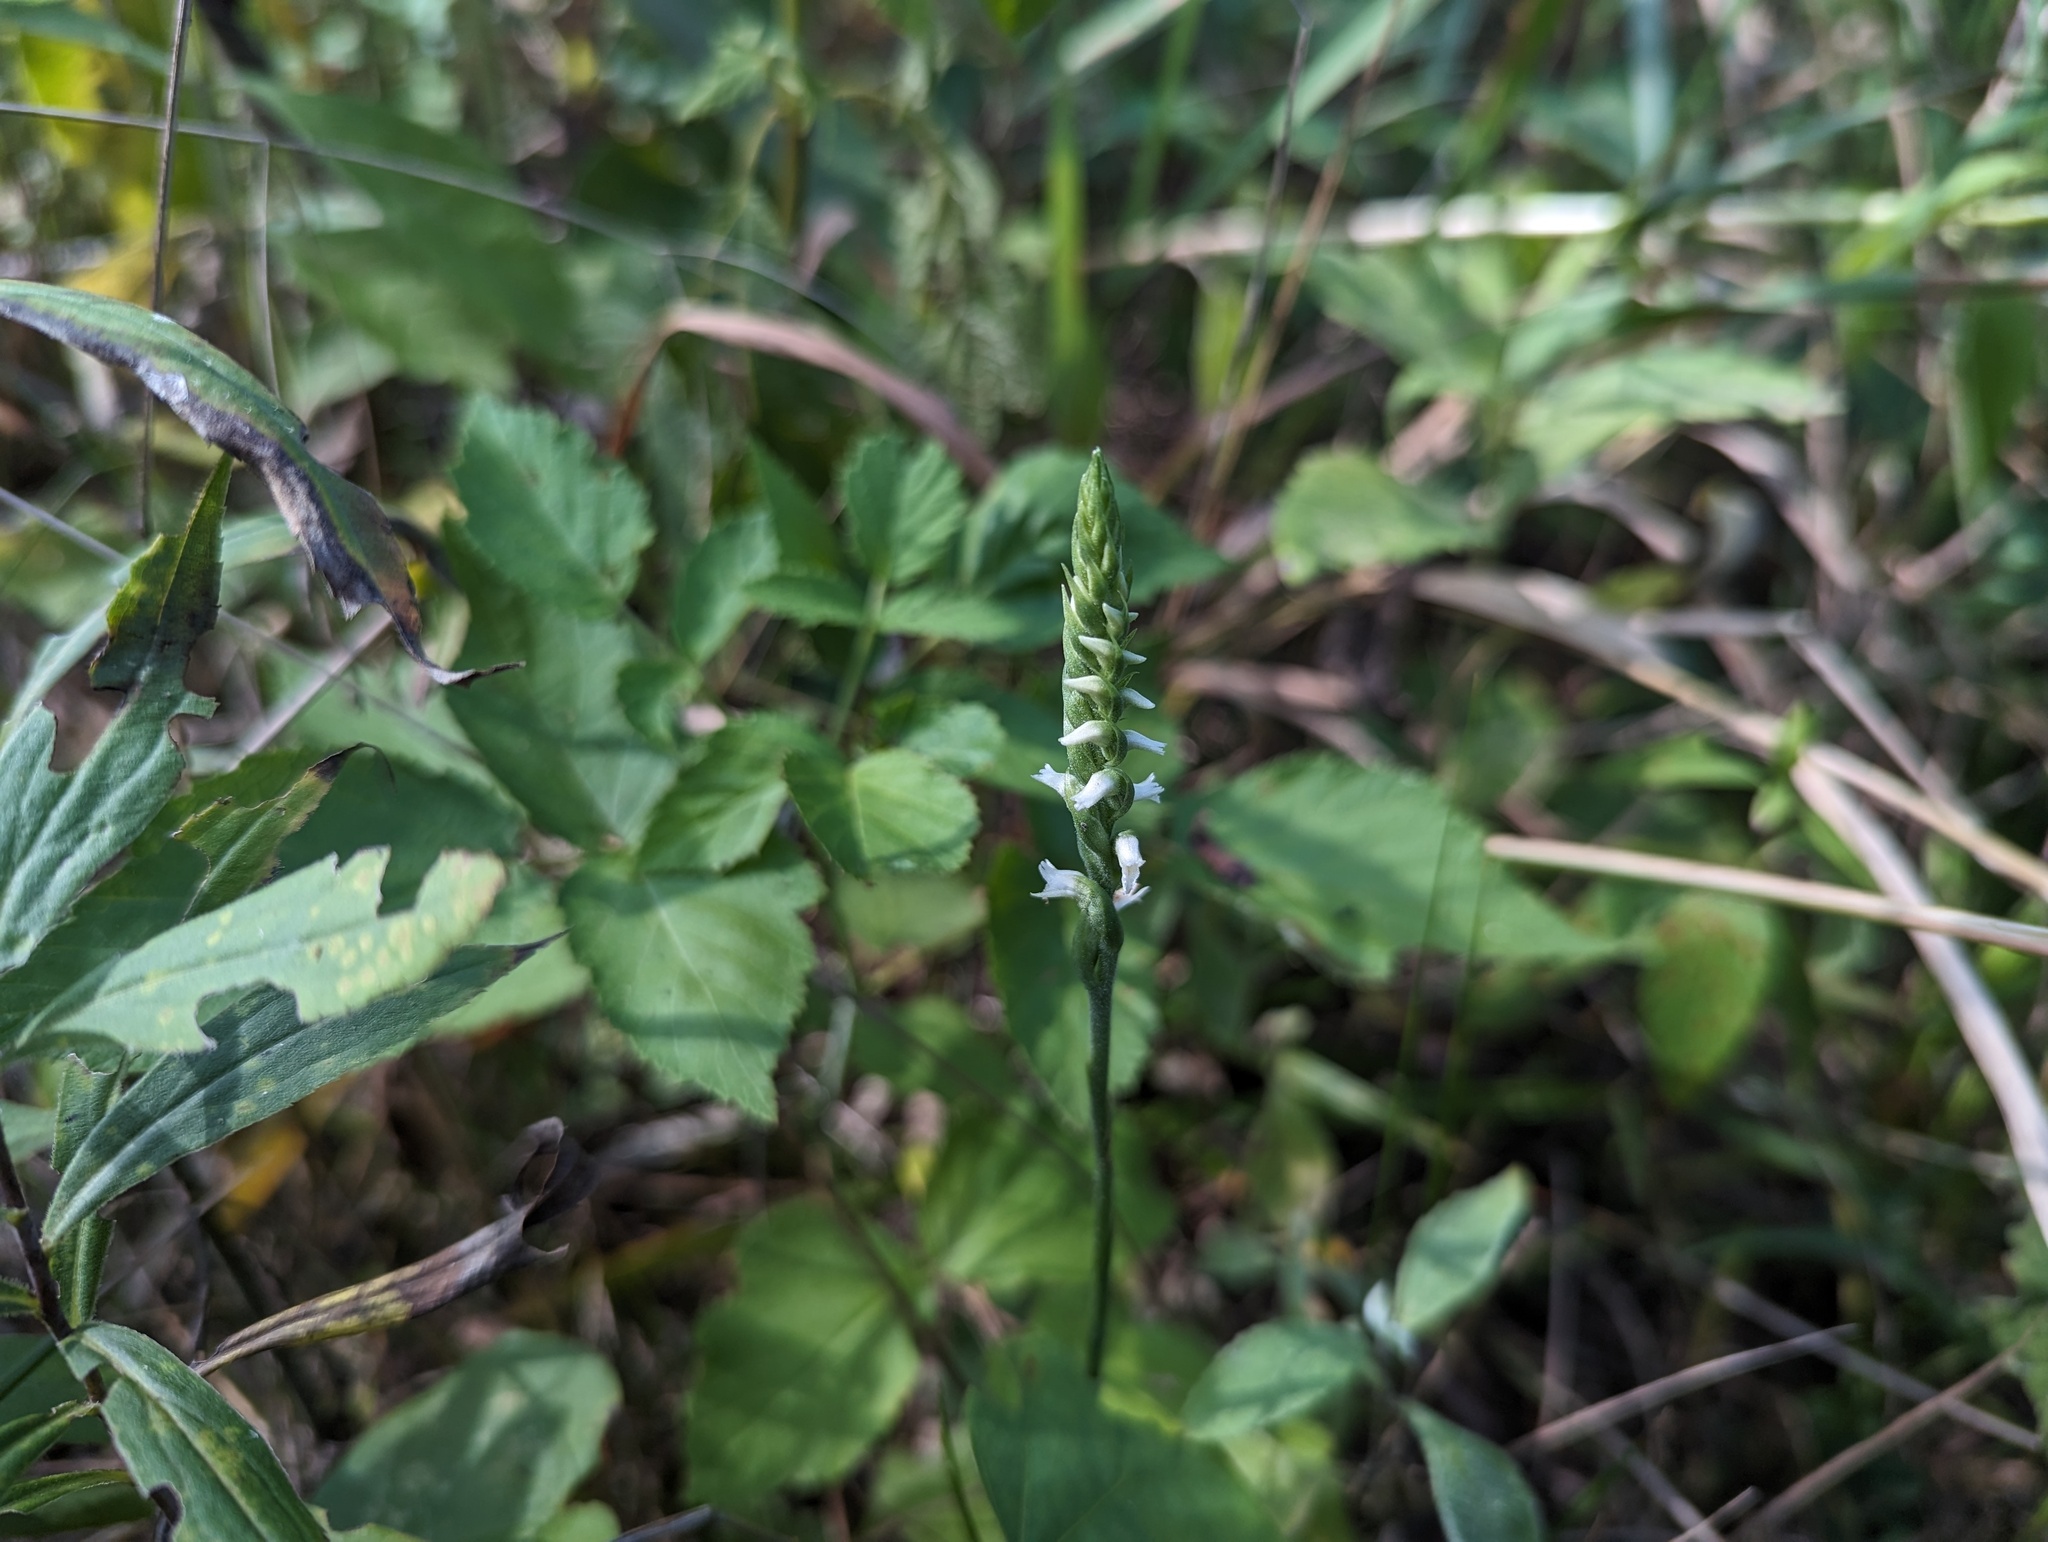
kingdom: Plantae
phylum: Tracheophyta
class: Liliopsida
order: Asparagales
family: Orchidaceae
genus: Spiranthes
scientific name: Spiranthes ovalis
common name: October ladies'-tresses
